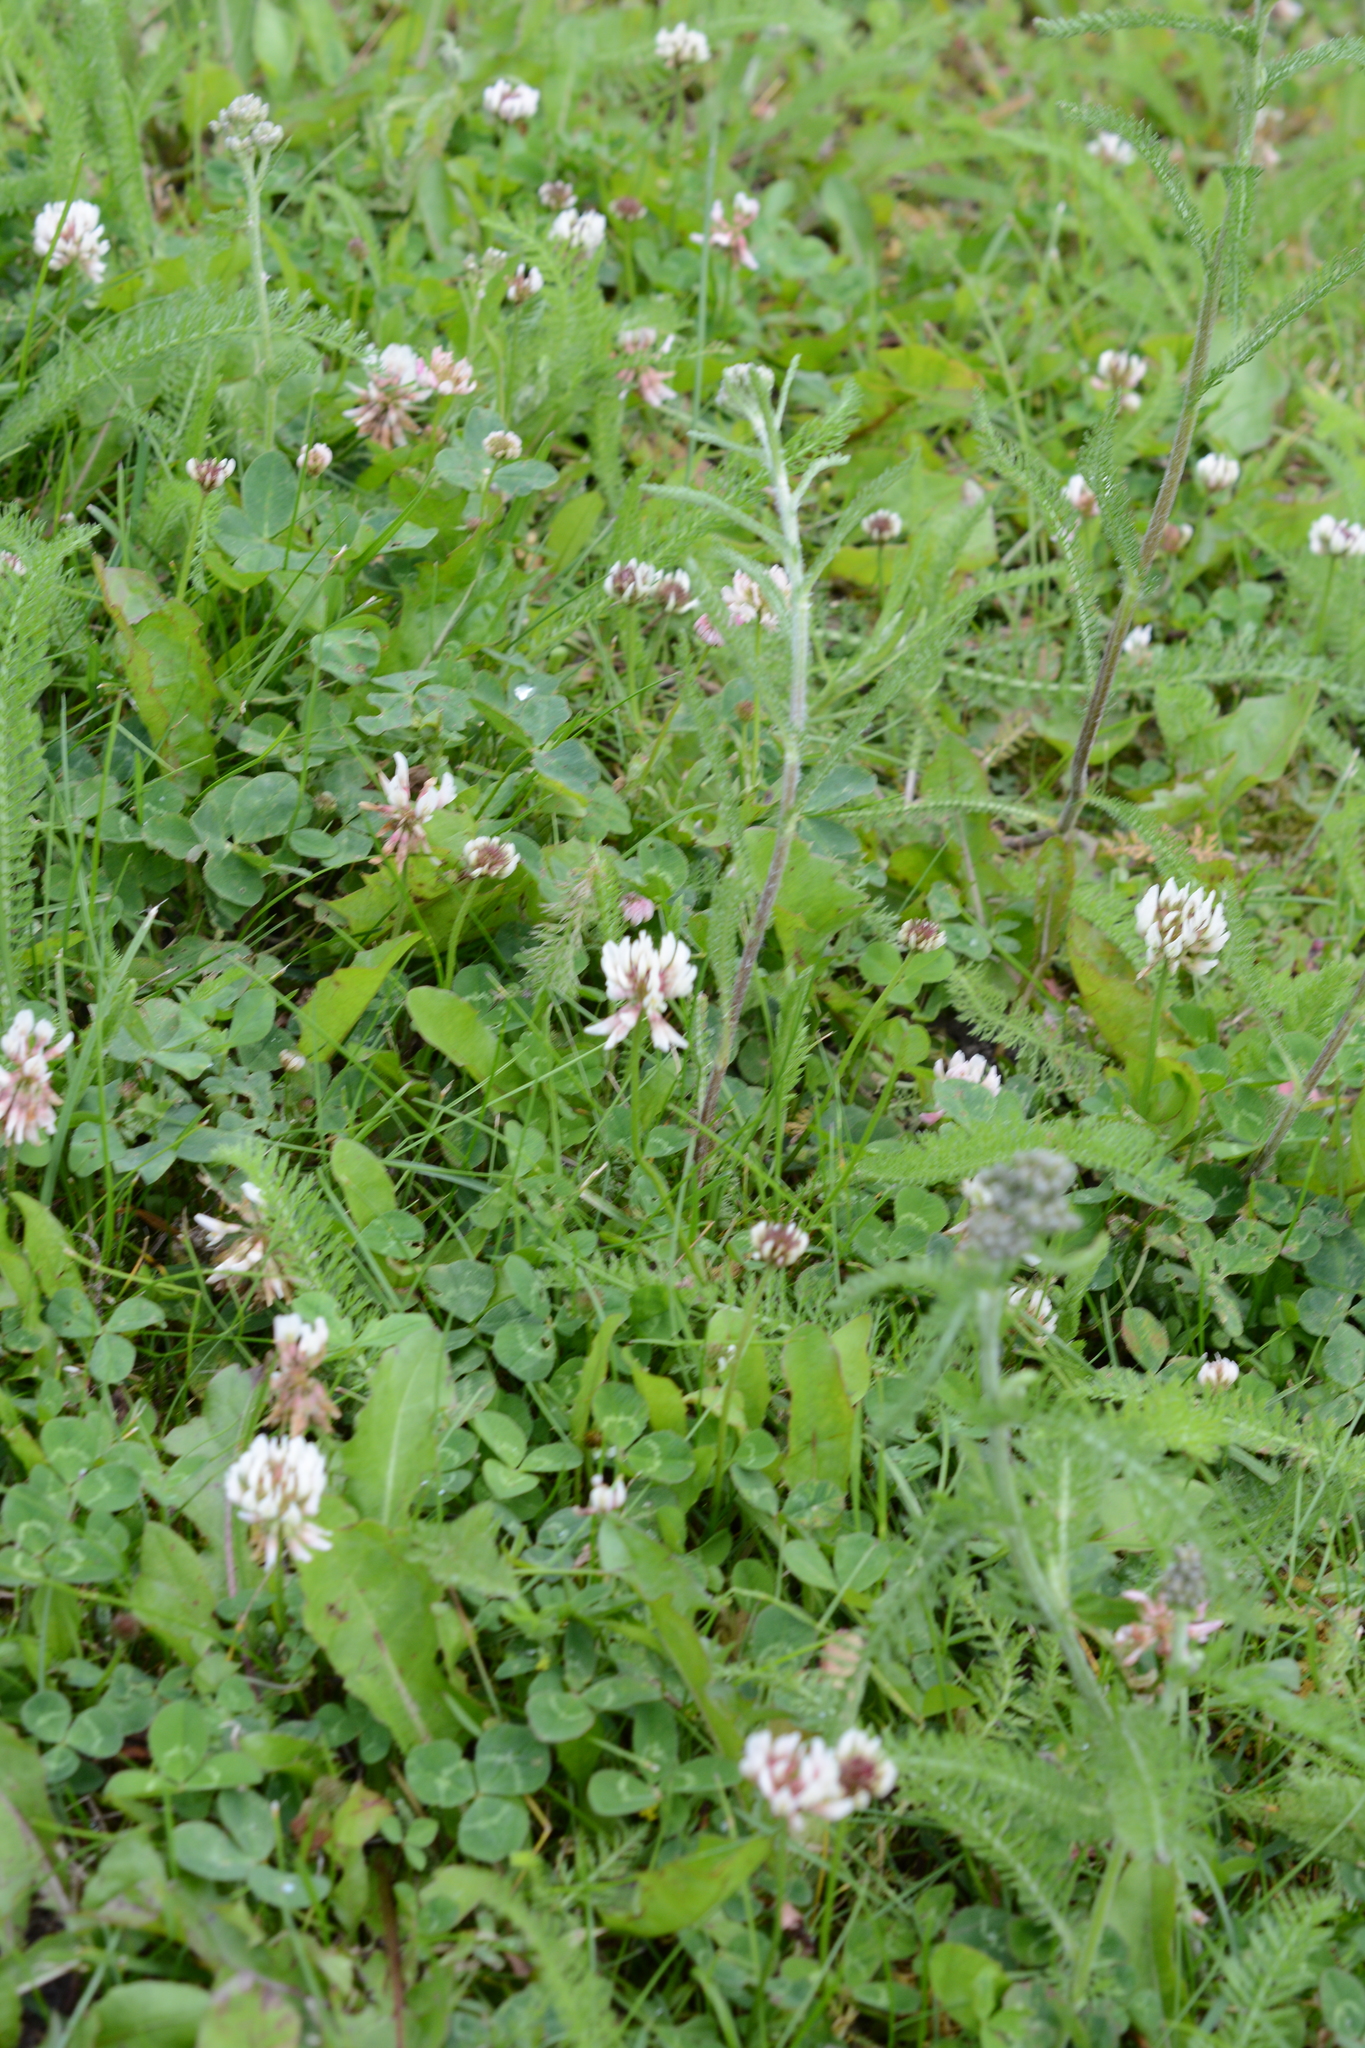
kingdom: Plantae
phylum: Tracheophyta
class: Magnoliopsida
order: Fabales
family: Fabaceae
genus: Trifolium
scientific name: Trifolium repens
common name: White clover
